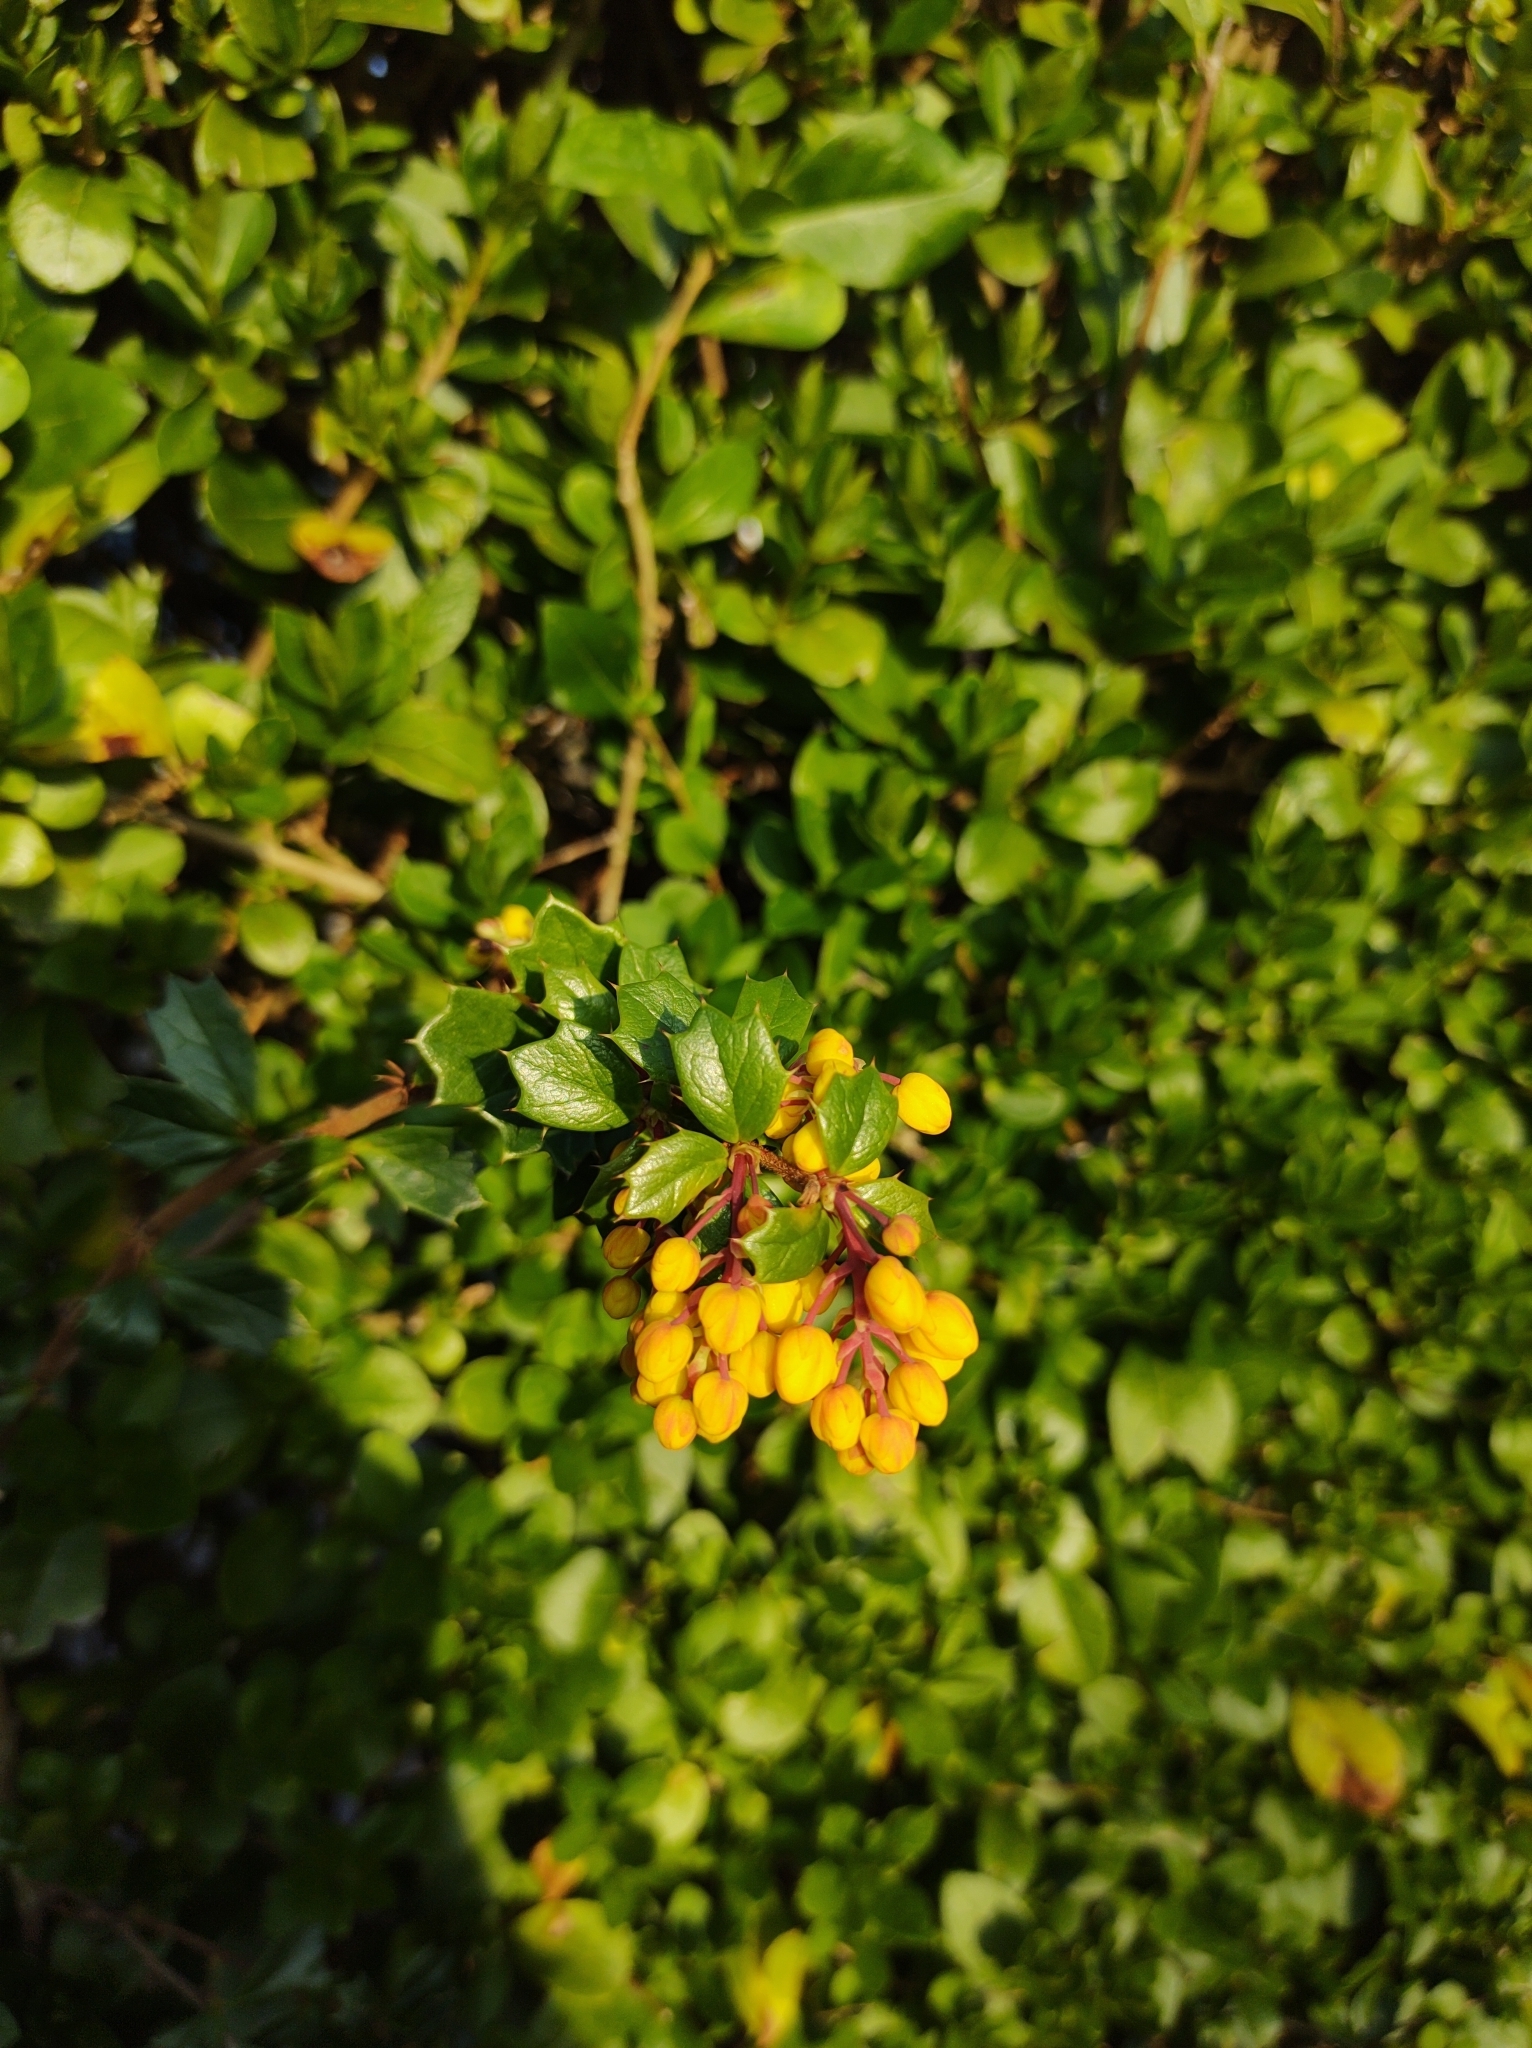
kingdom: Plantae
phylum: Tracheophyta
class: Magnoliopsida
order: Ranunculales
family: Berberidaceae
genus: Berberis
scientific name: Berberis darwinii
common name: Darwin's barberry
